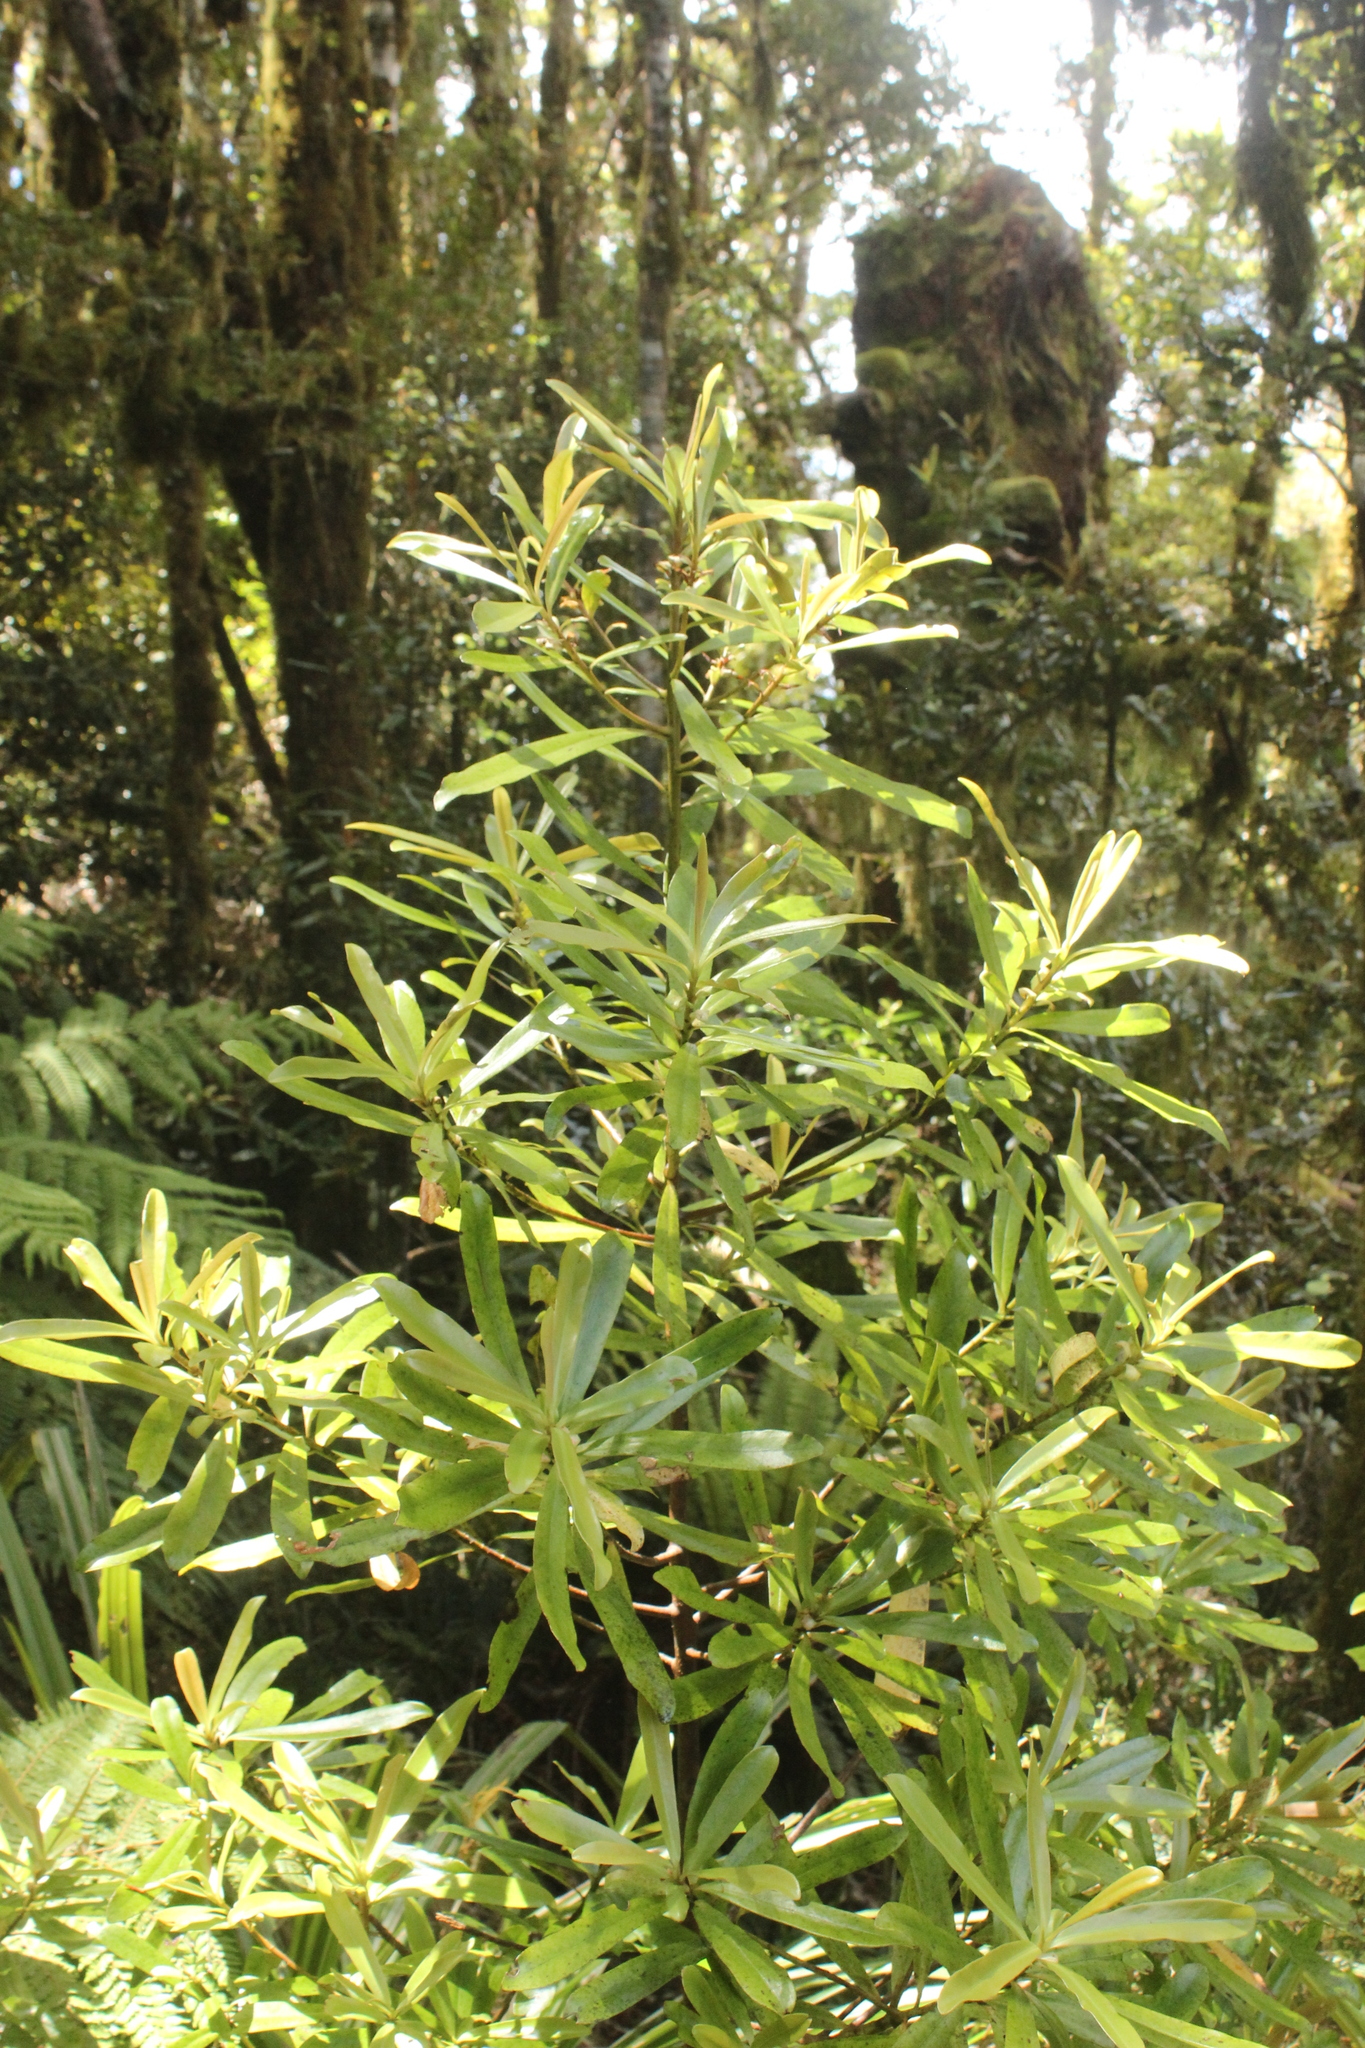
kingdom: Plantae
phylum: Tracheophyta
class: Magnoliopsida
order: Ericales
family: Primulaceae
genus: Myrsine
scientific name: Myrsine salicina
